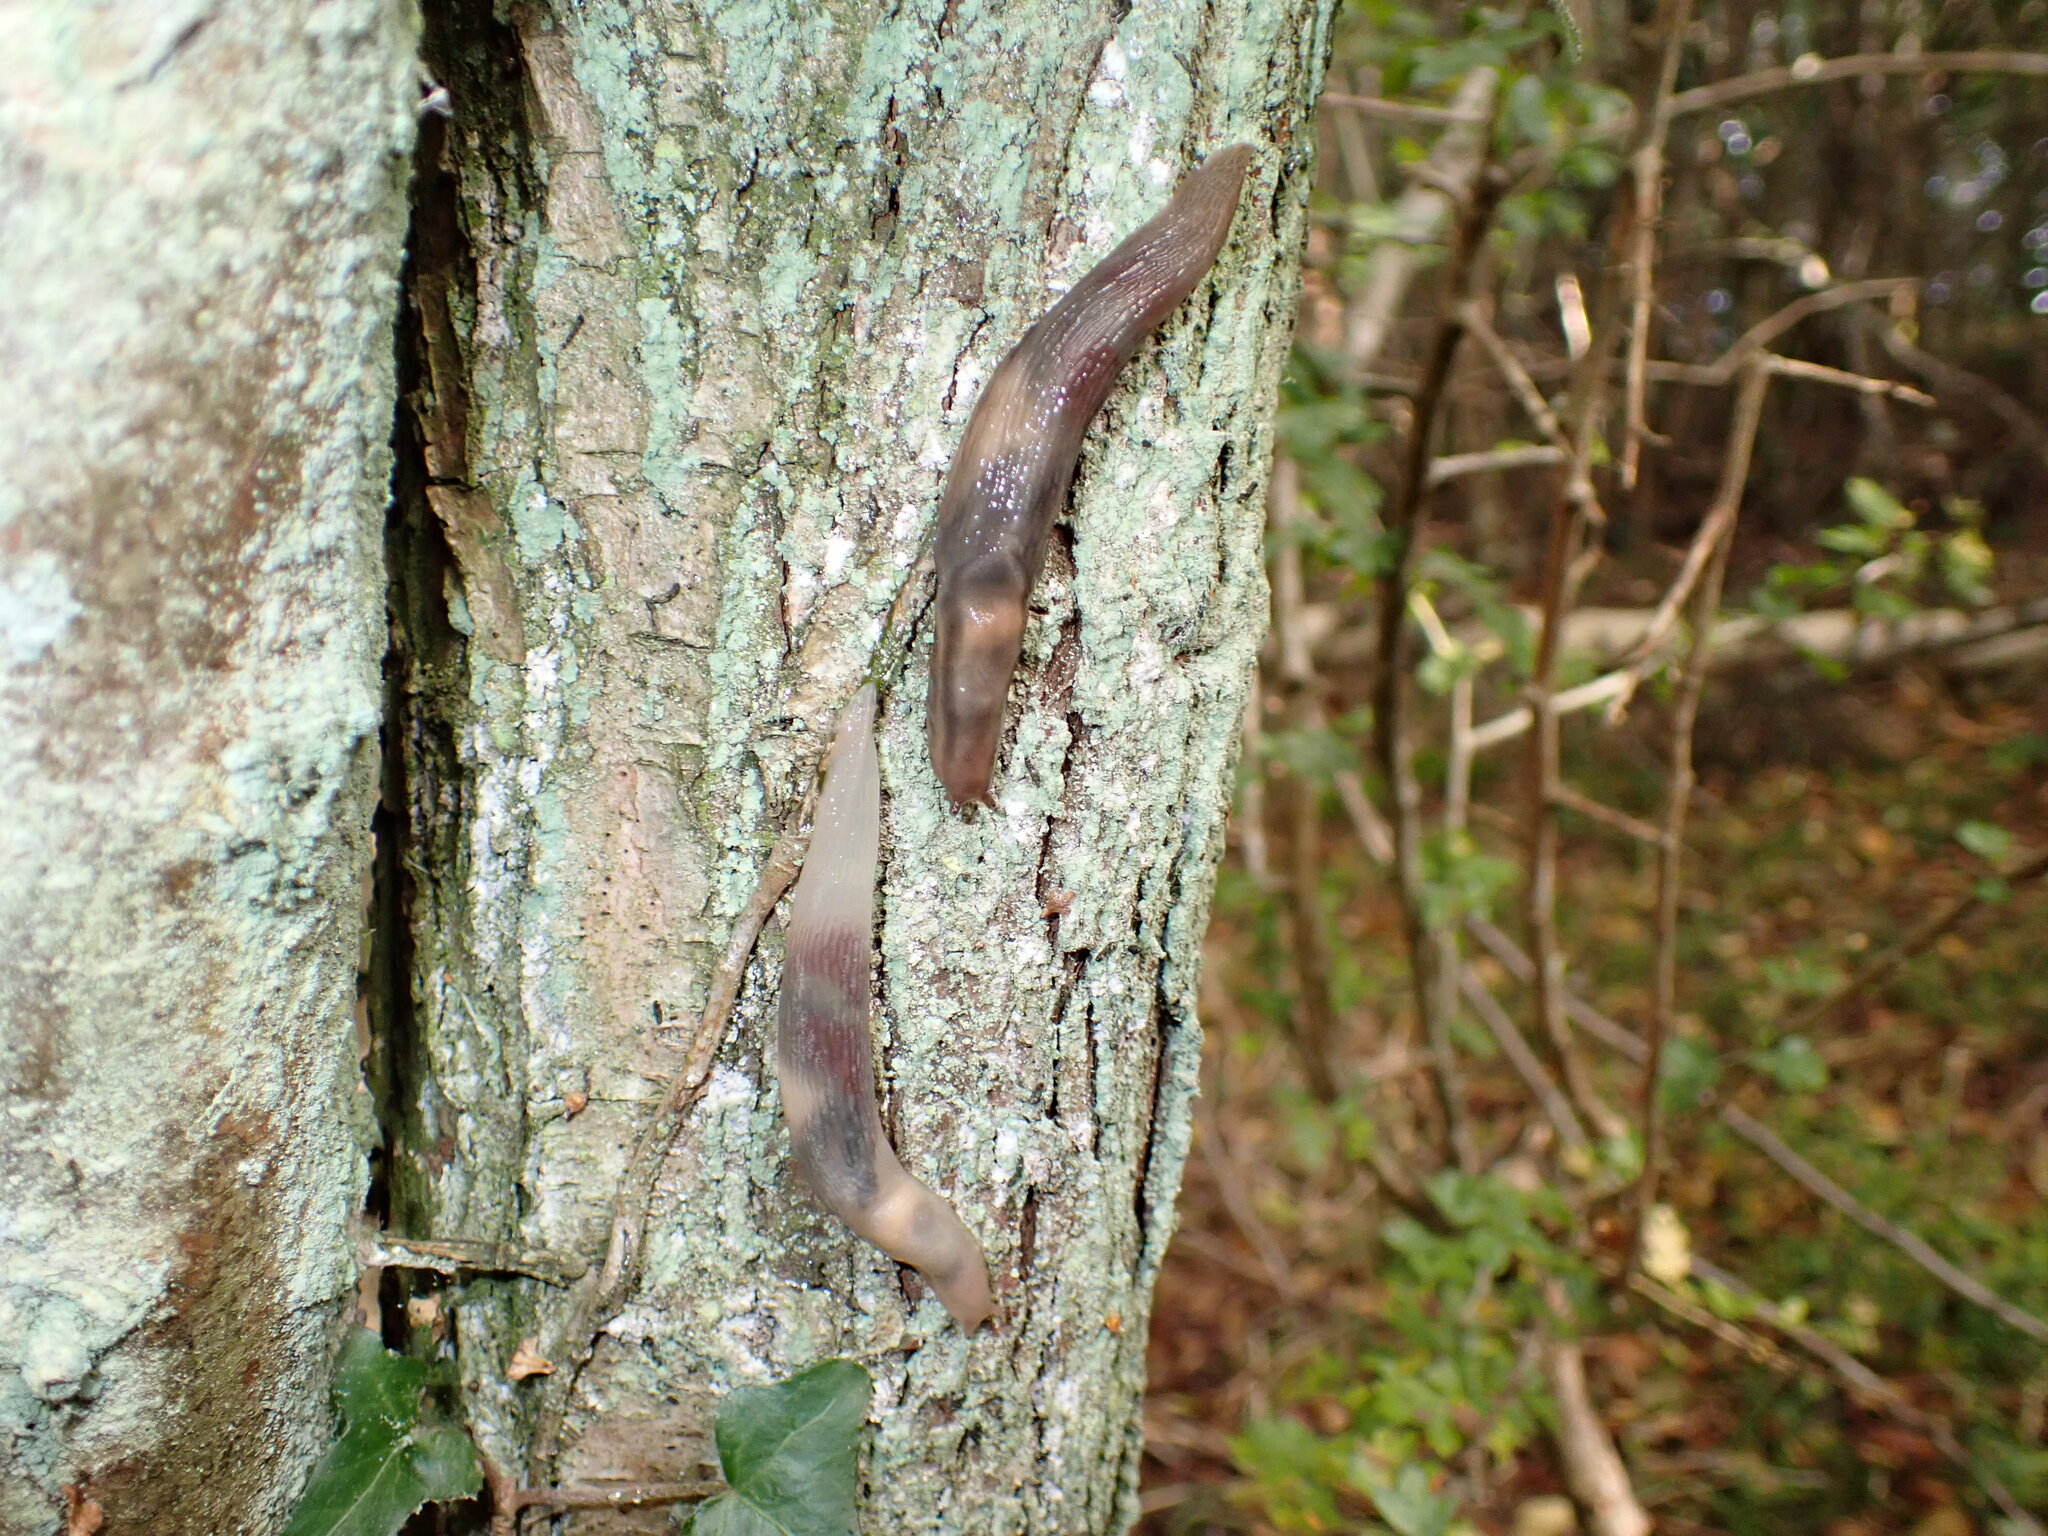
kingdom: Animalia
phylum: Mollusca
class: Gastropoda
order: Stylommatophora
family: Limacidae
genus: Lehmannia
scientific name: Lehmannia marginata
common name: Tree slug
